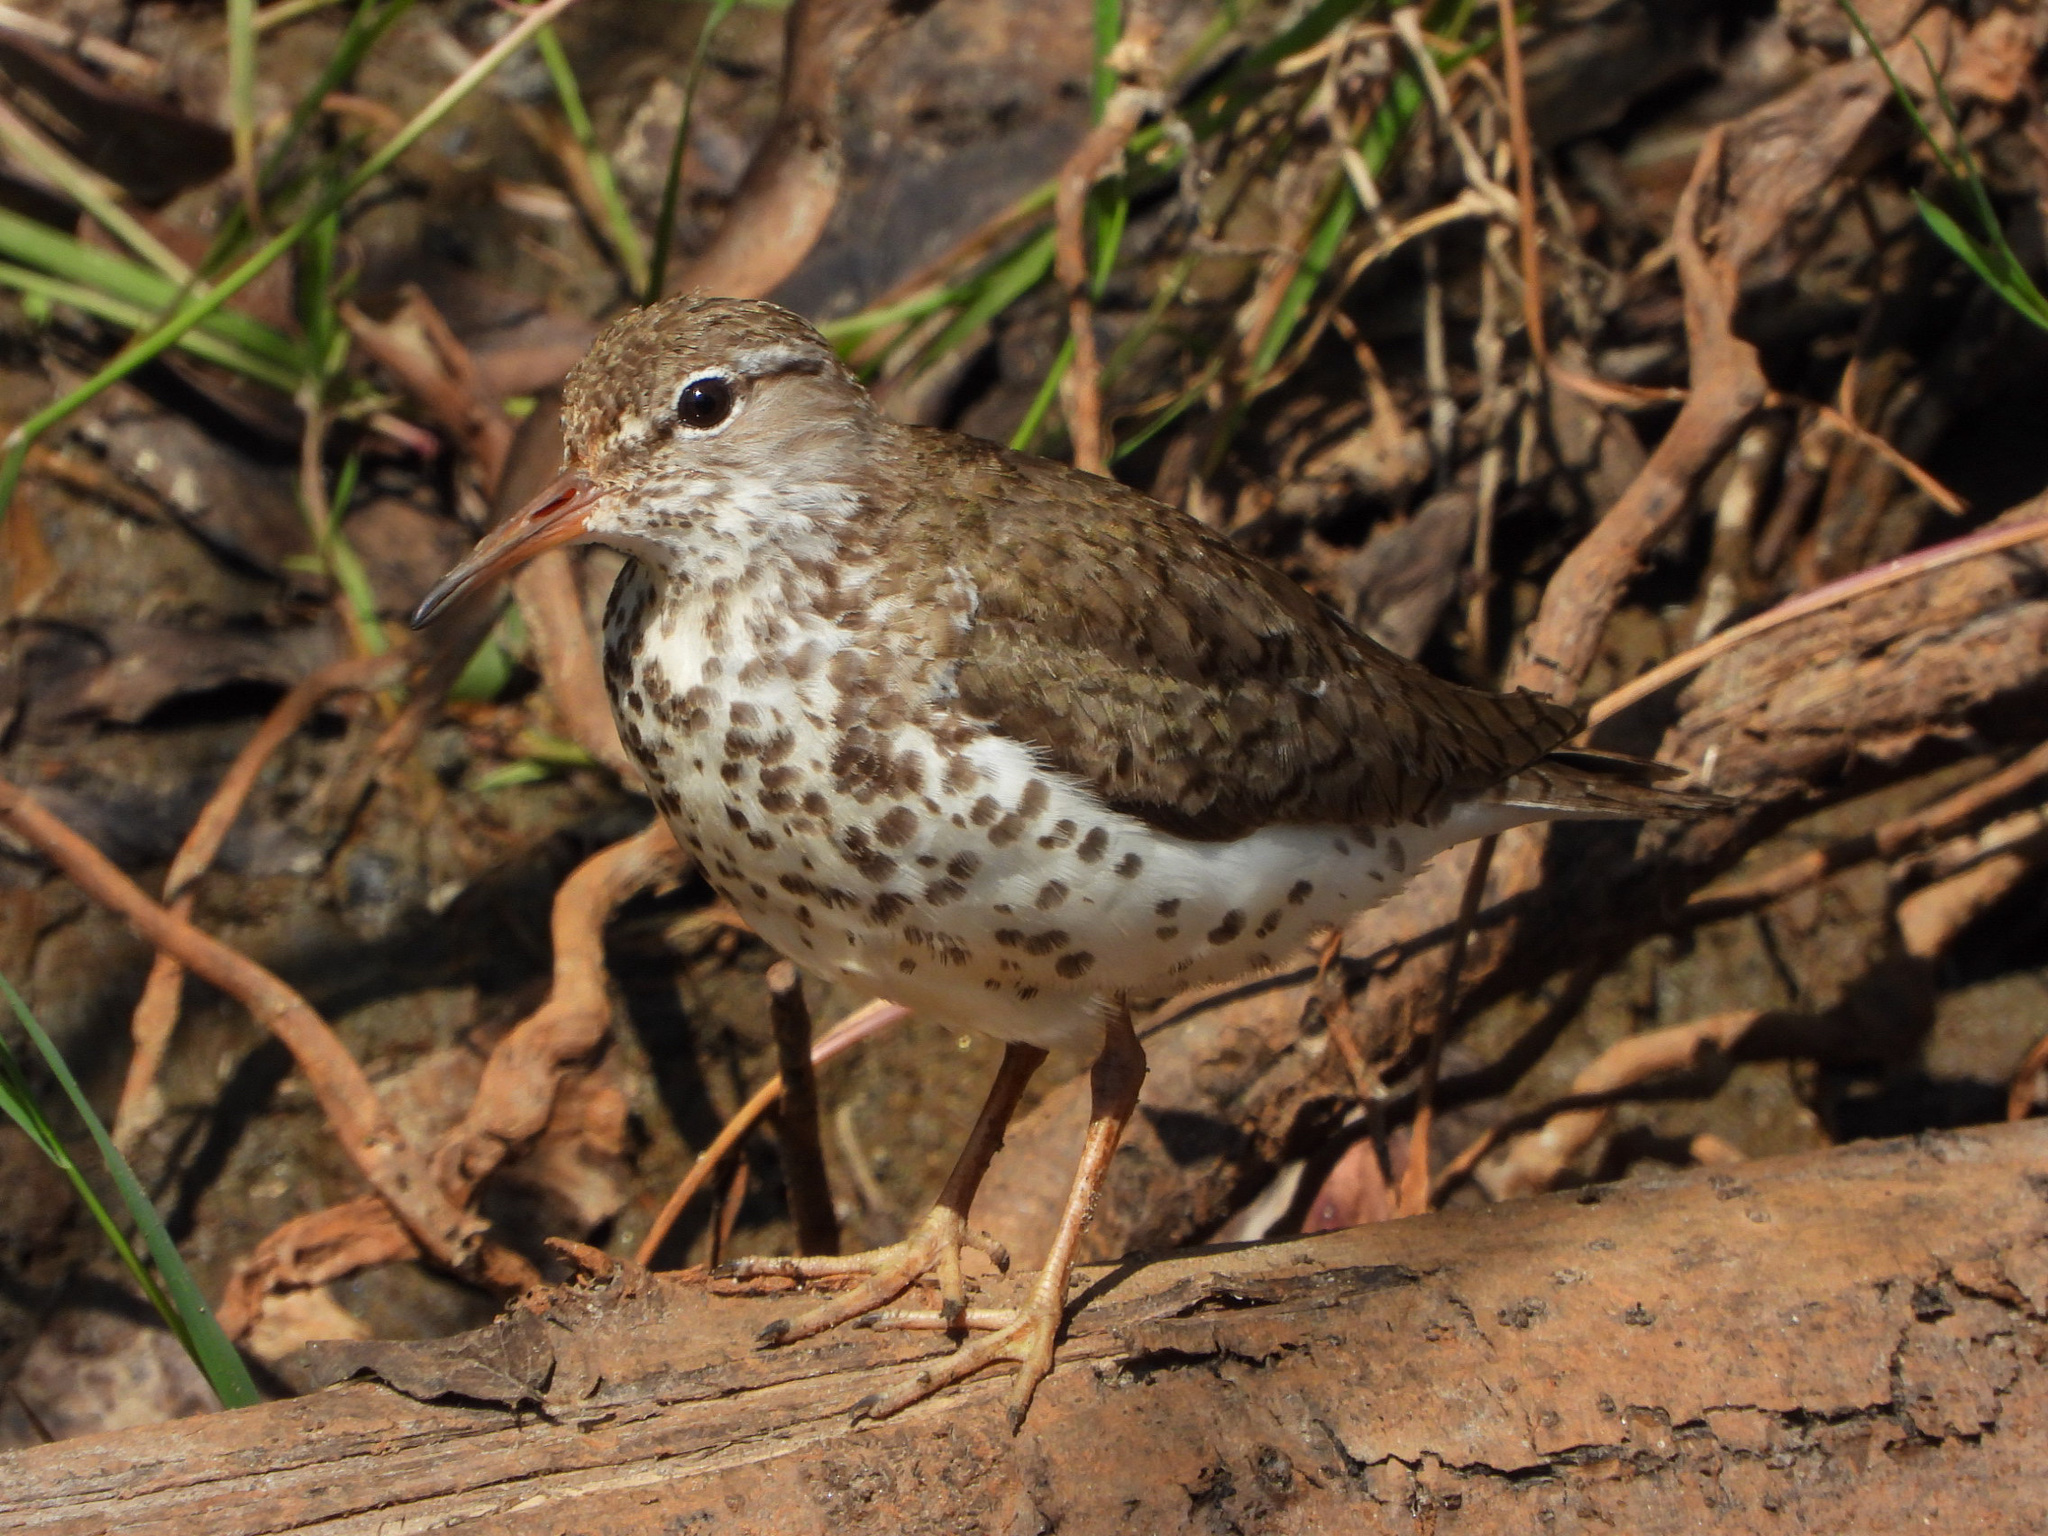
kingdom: Animalia
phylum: Chordata
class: Aves
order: Charadriiformes
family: Scolopacidae
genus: Actitis
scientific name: Actitis macularius
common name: Spotted sandpiper
